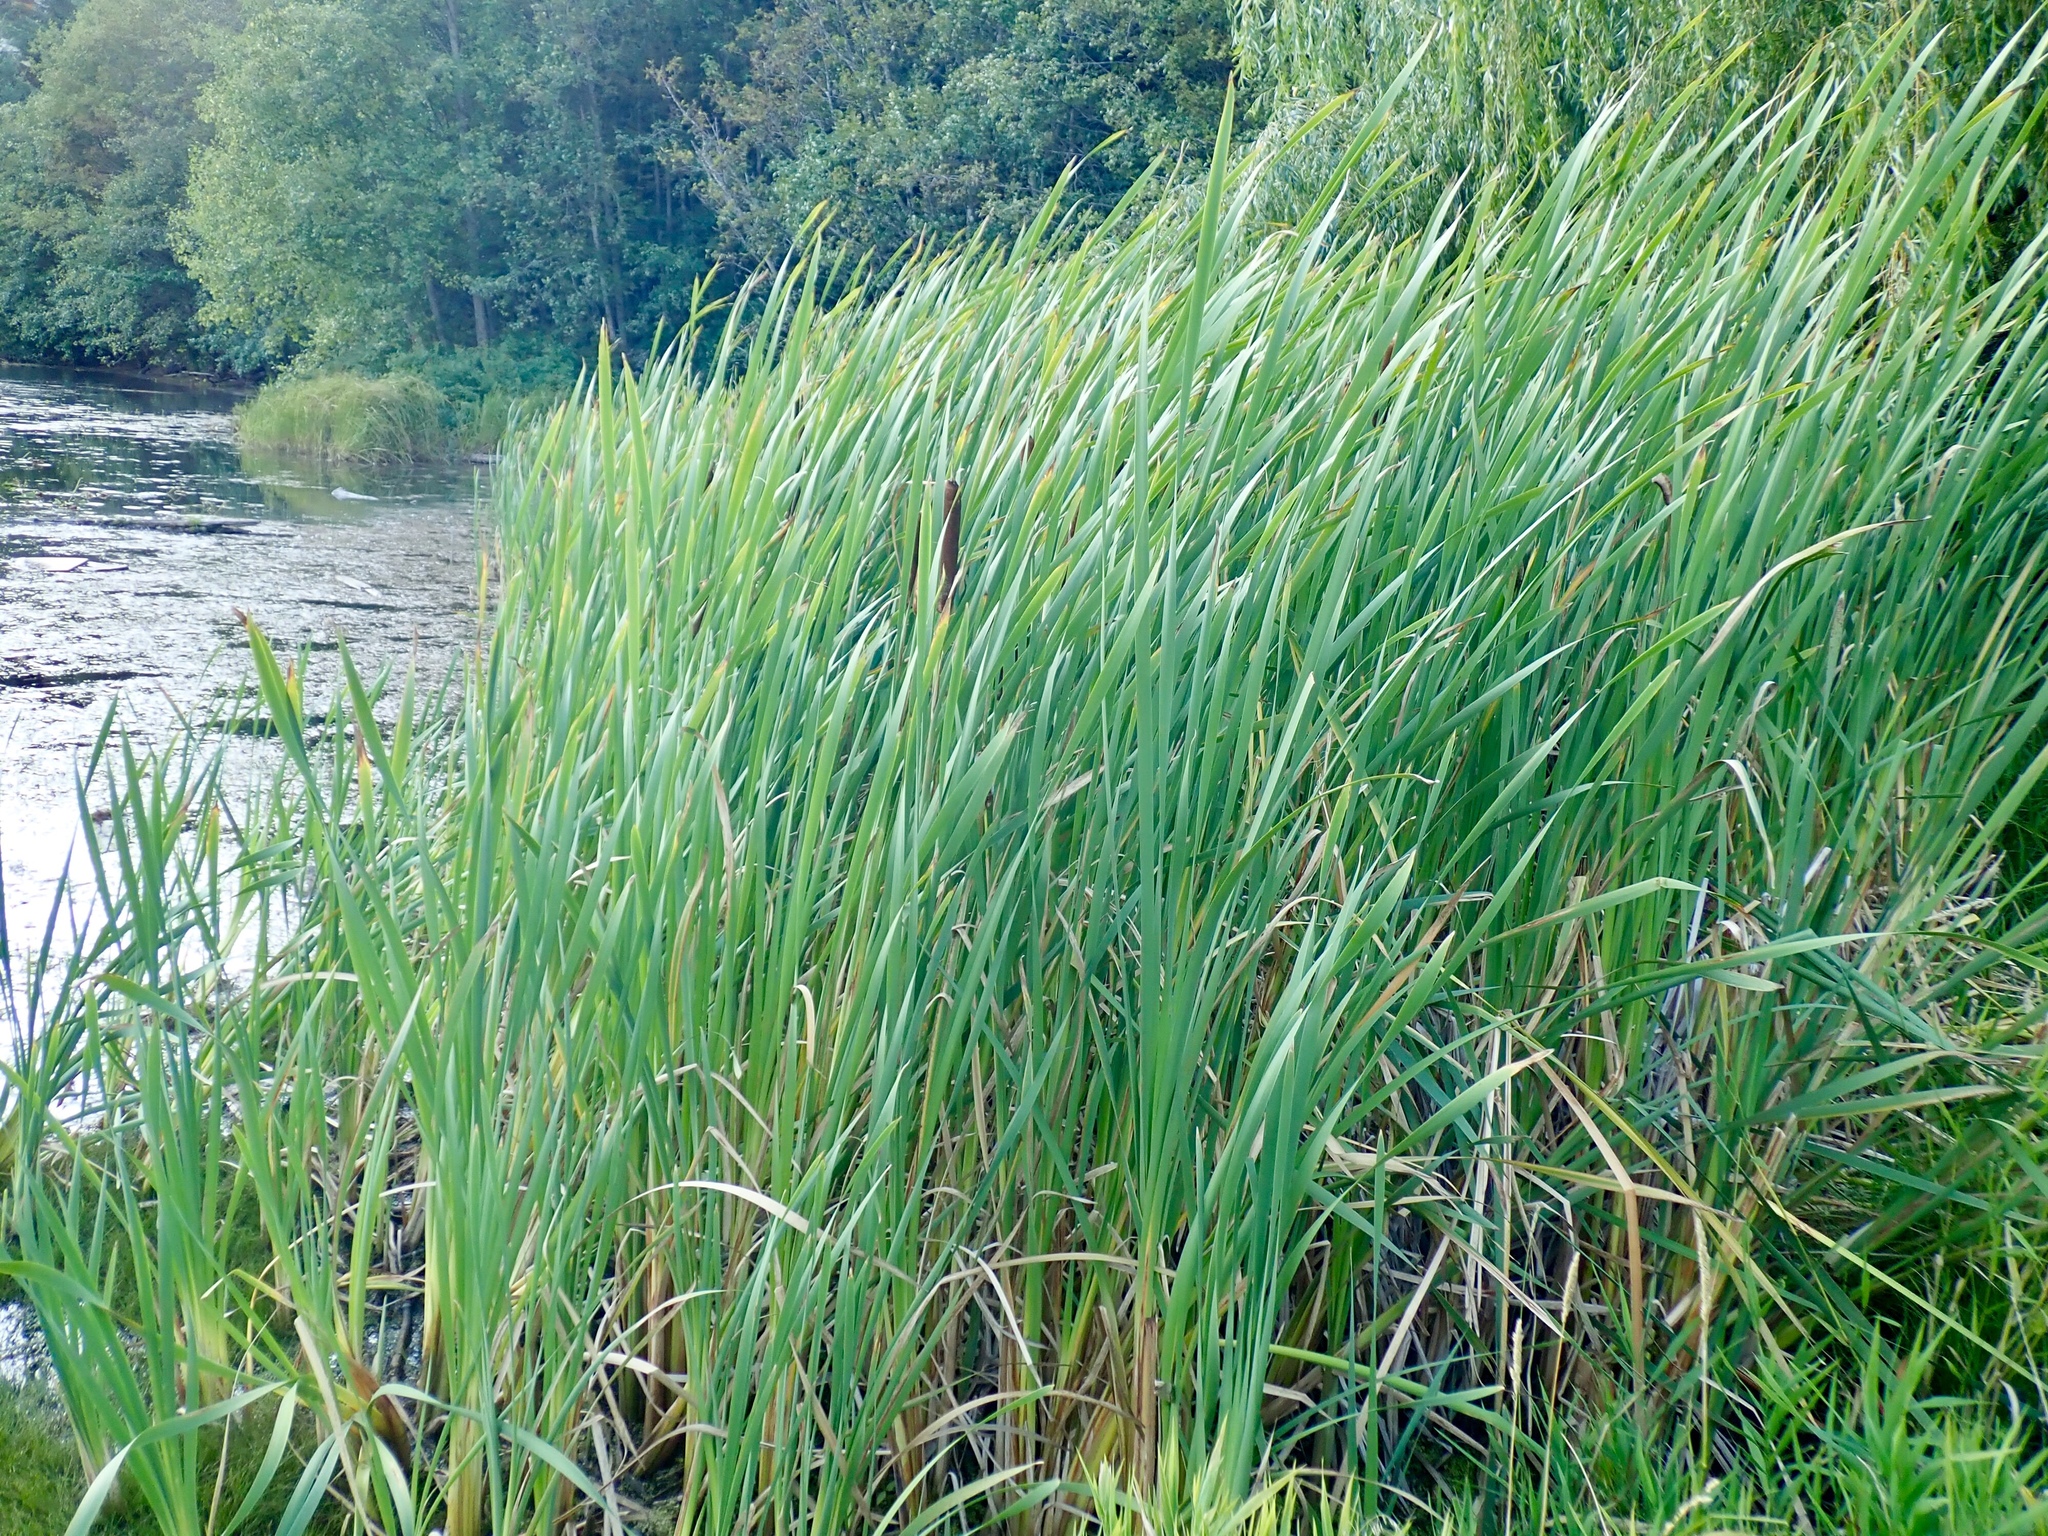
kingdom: Plantae
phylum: Tracheophyta
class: Liliopsida
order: Poales
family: Typhaceae
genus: Typha
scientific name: Typha latifolia
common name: Broadleaf cattail
